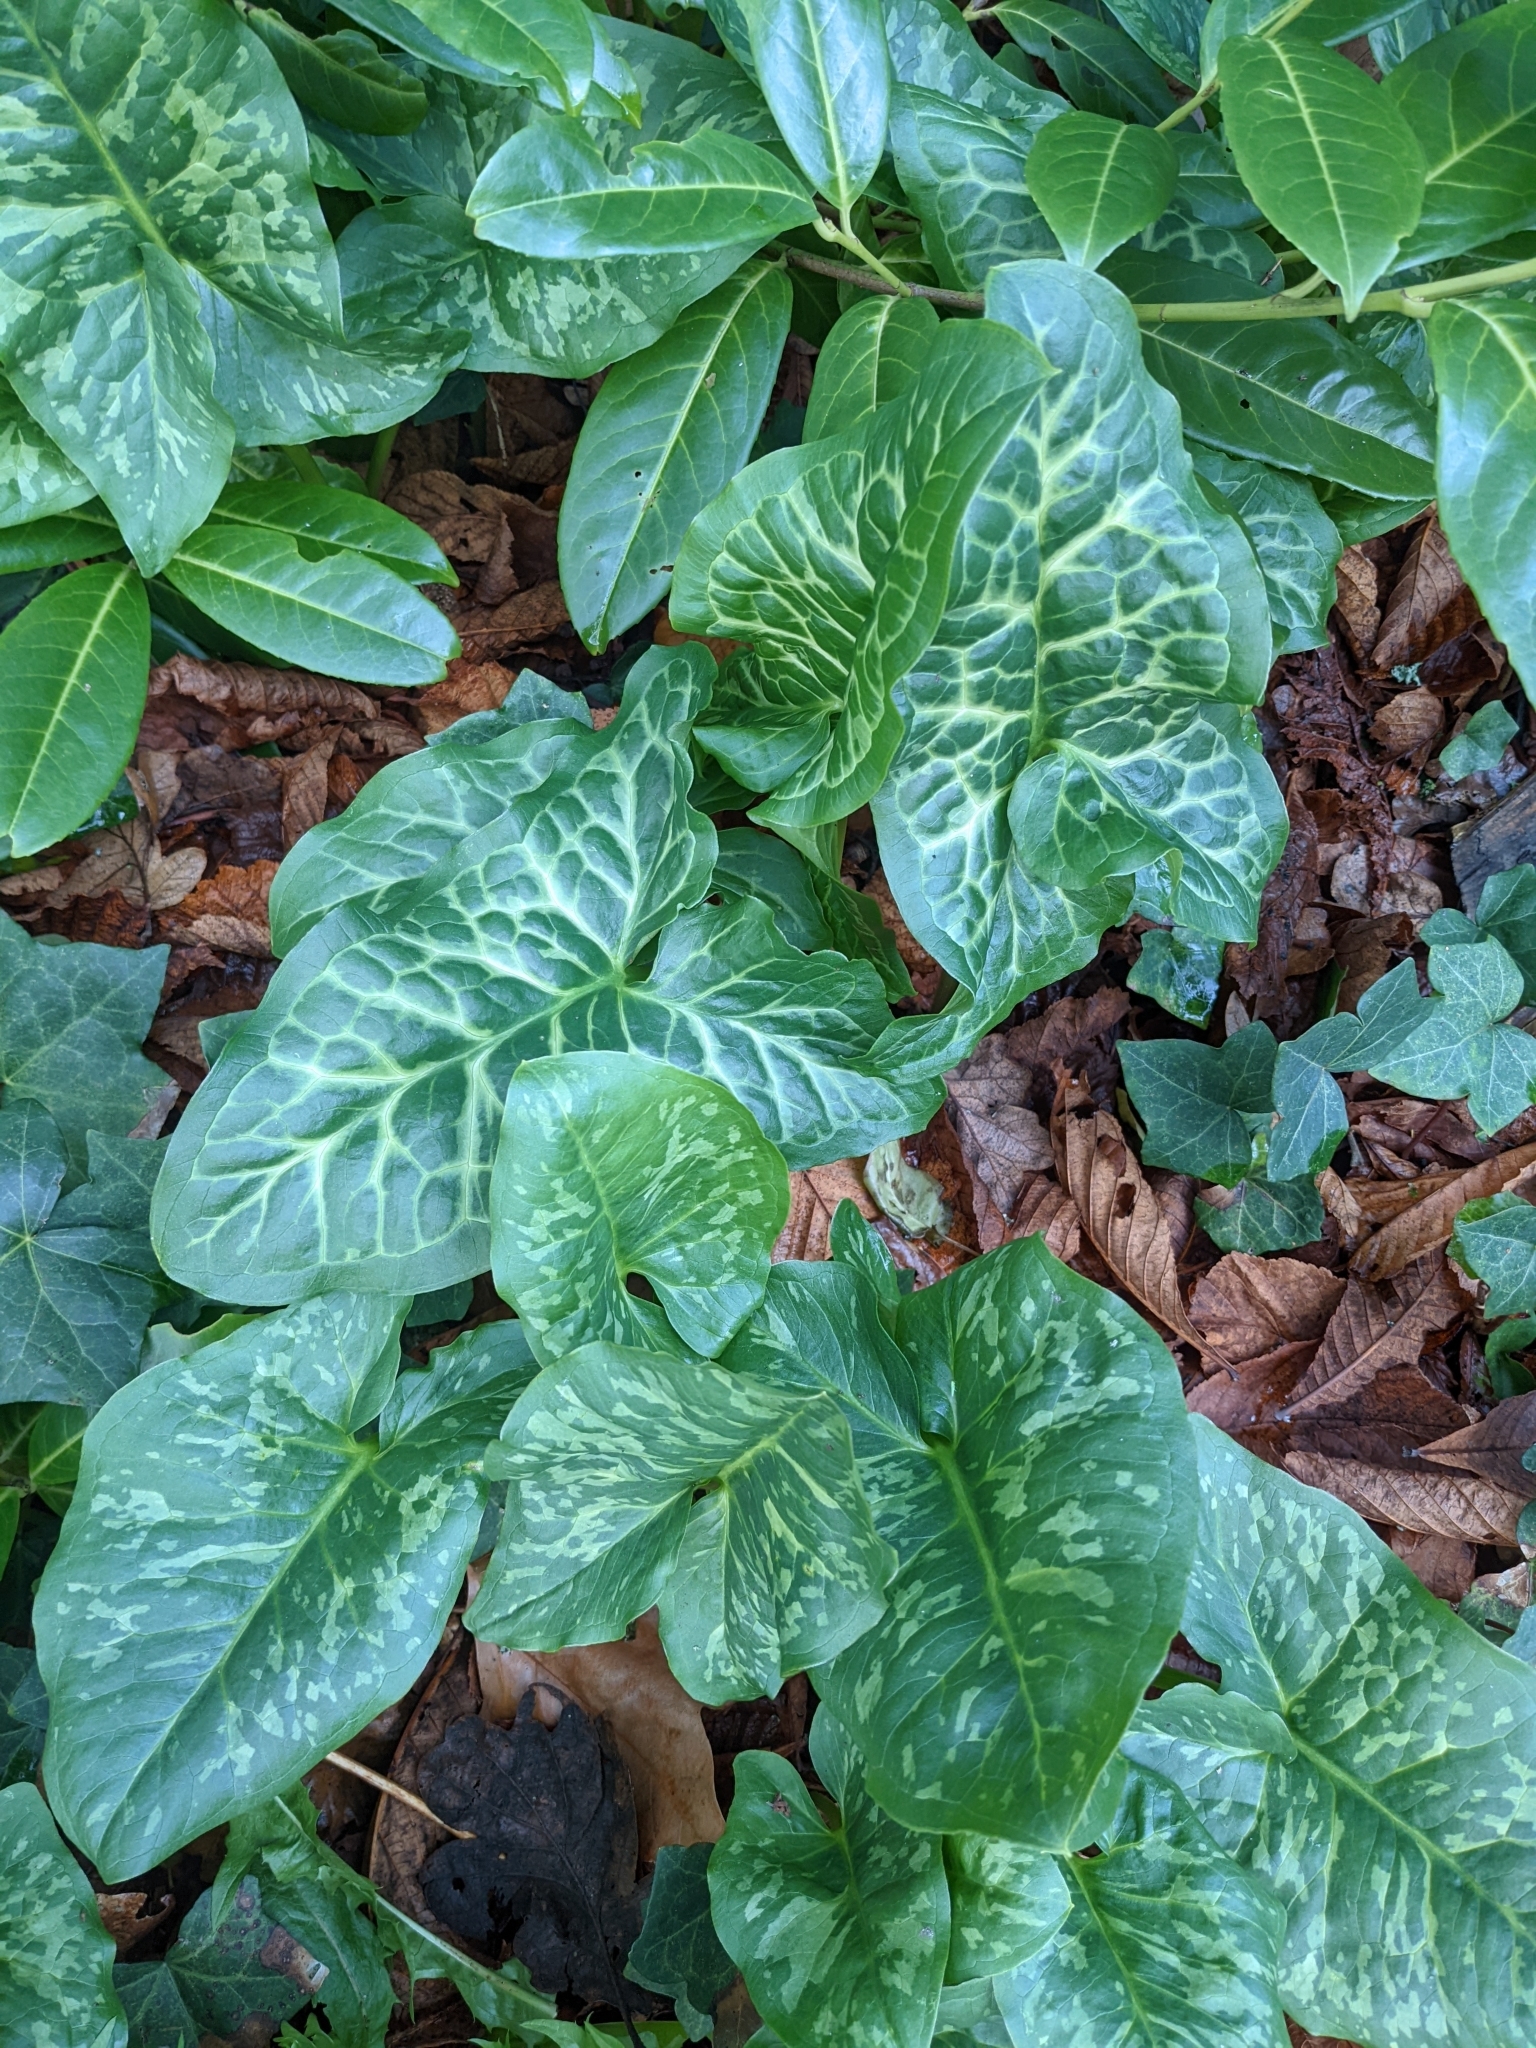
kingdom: Plantae
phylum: Tracheophyta
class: Liliopsida
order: Alismatales
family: Araceae
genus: Arum
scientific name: Arum italicum
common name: Italian lords-and-ladies
